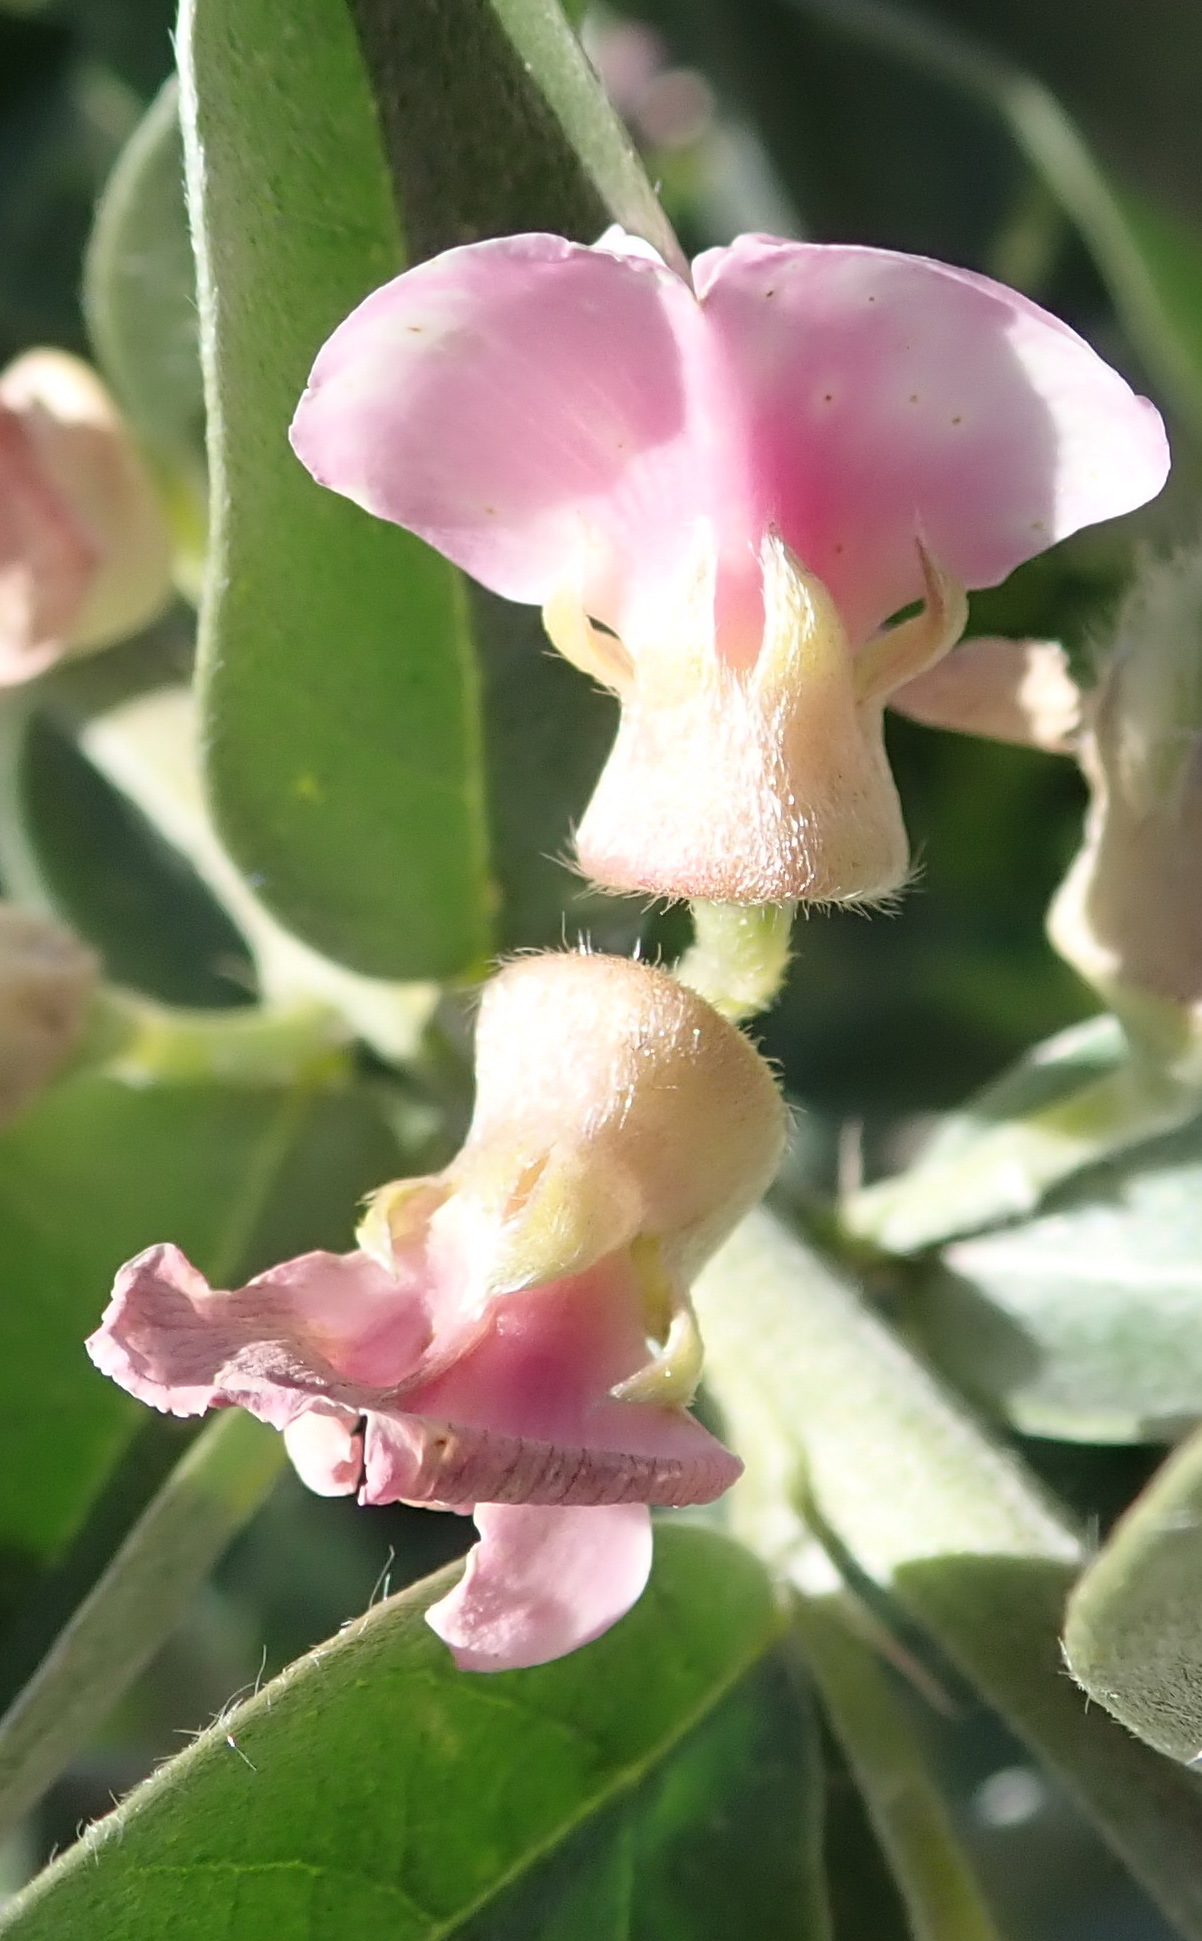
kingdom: Plantae
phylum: Tracheophyta
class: Magnoliopsida
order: Fabales
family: Fabaceae
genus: Podalyria
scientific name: Podalyria myrtillifolia
